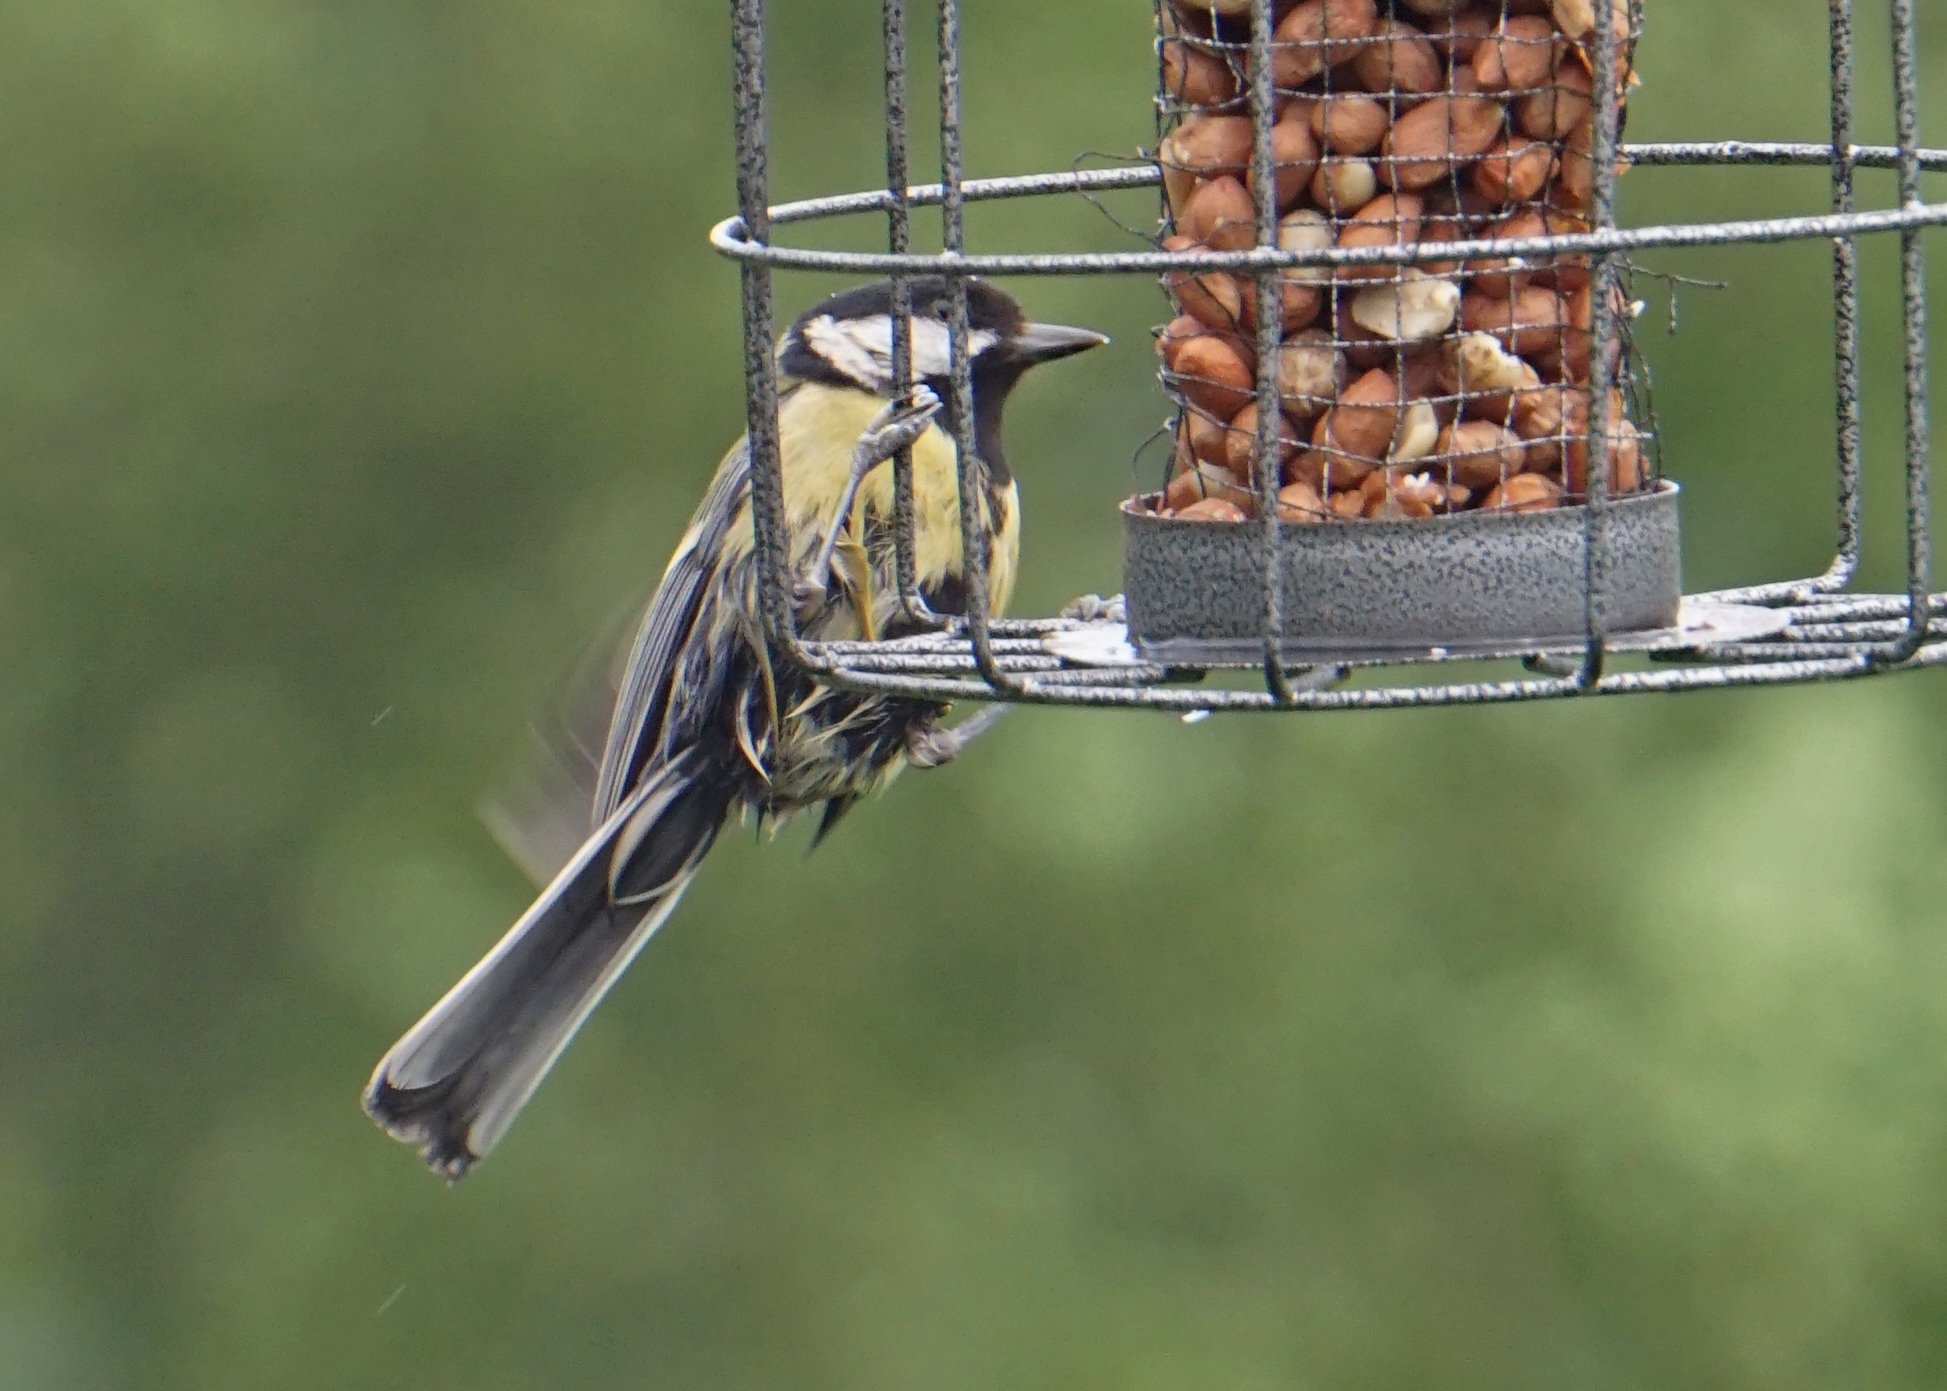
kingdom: Animalia
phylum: Chordata
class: Aves
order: Passeriformes
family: Paridae
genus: Parus
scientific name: Parus major
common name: Great tit
